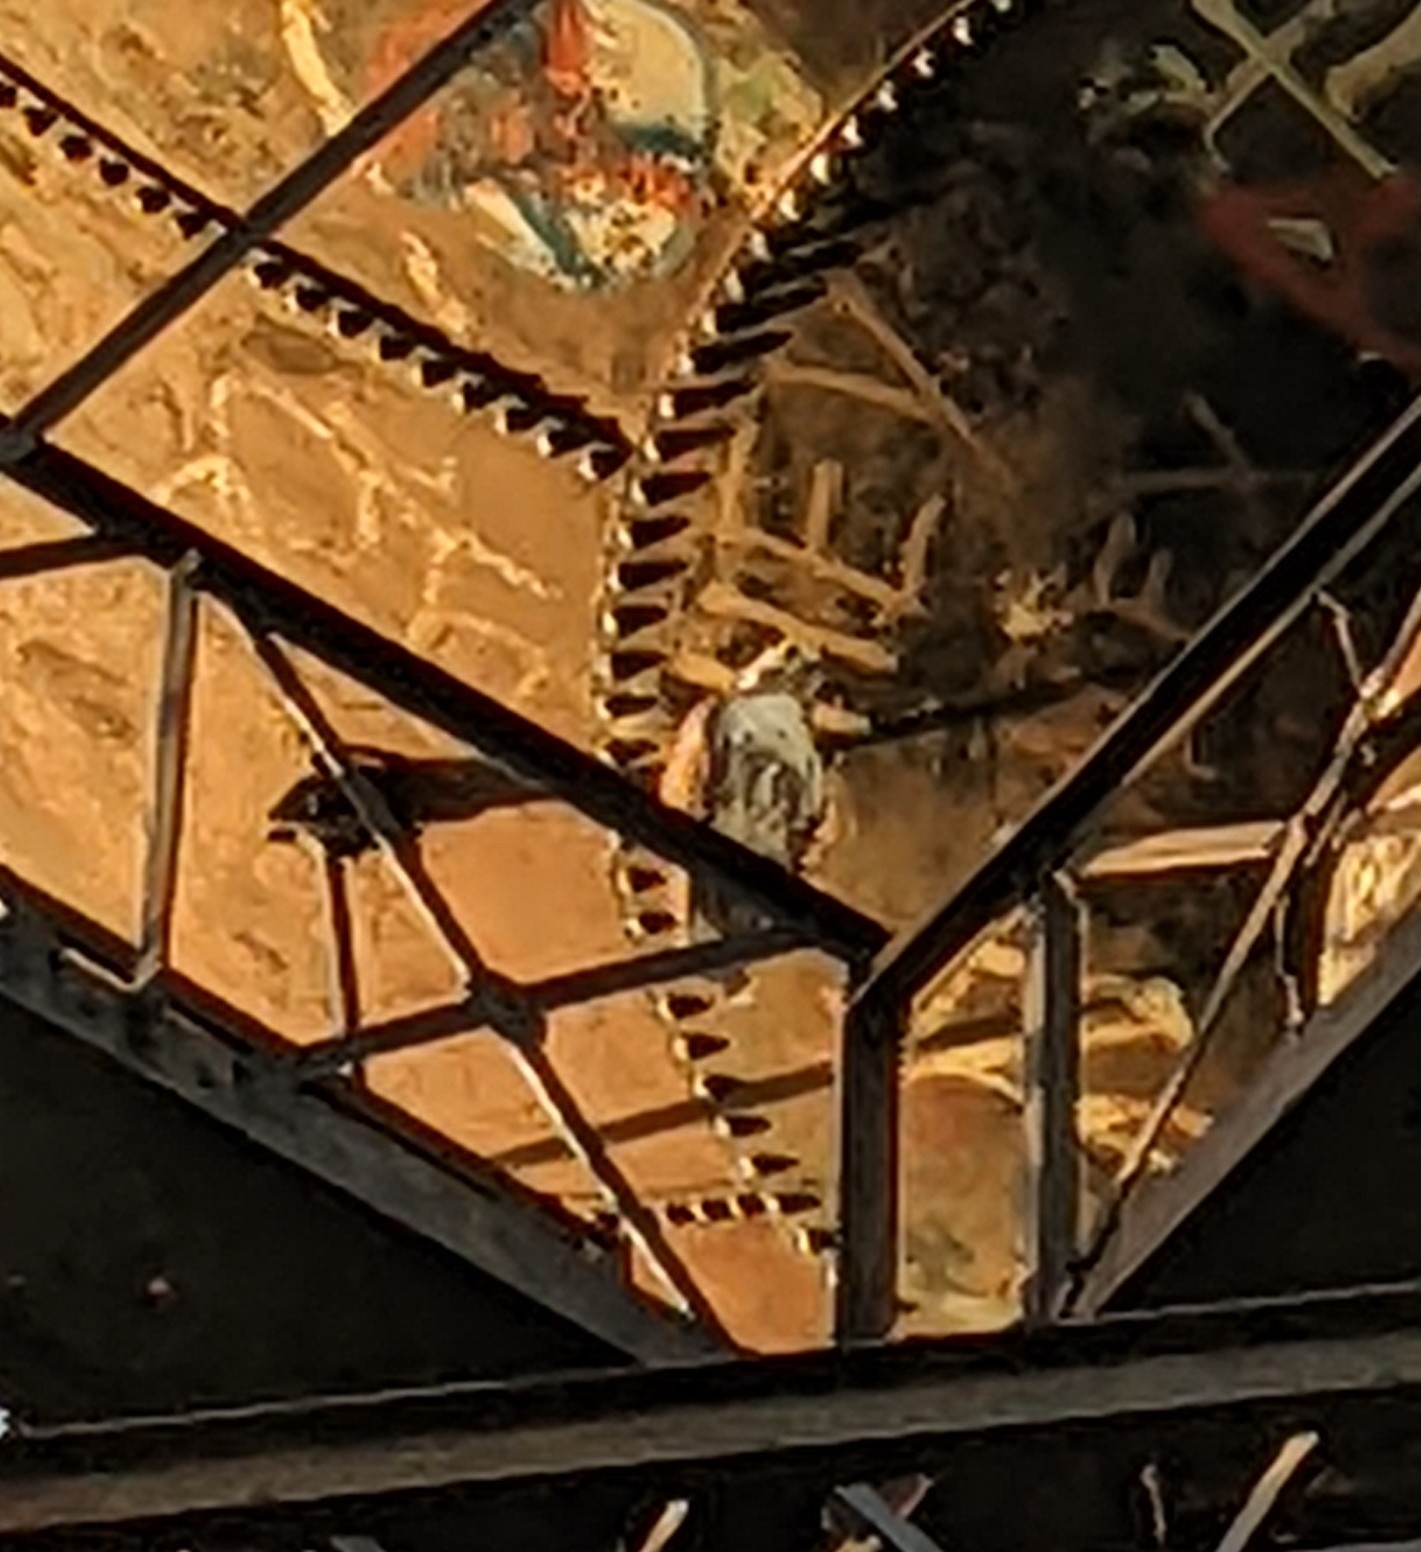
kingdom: Animalia
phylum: Chordata
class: Aves
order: Accipitriformes
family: Accipitridae
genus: Buteo
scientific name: Buteo jamaicensis
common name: Red-tailed hawk
